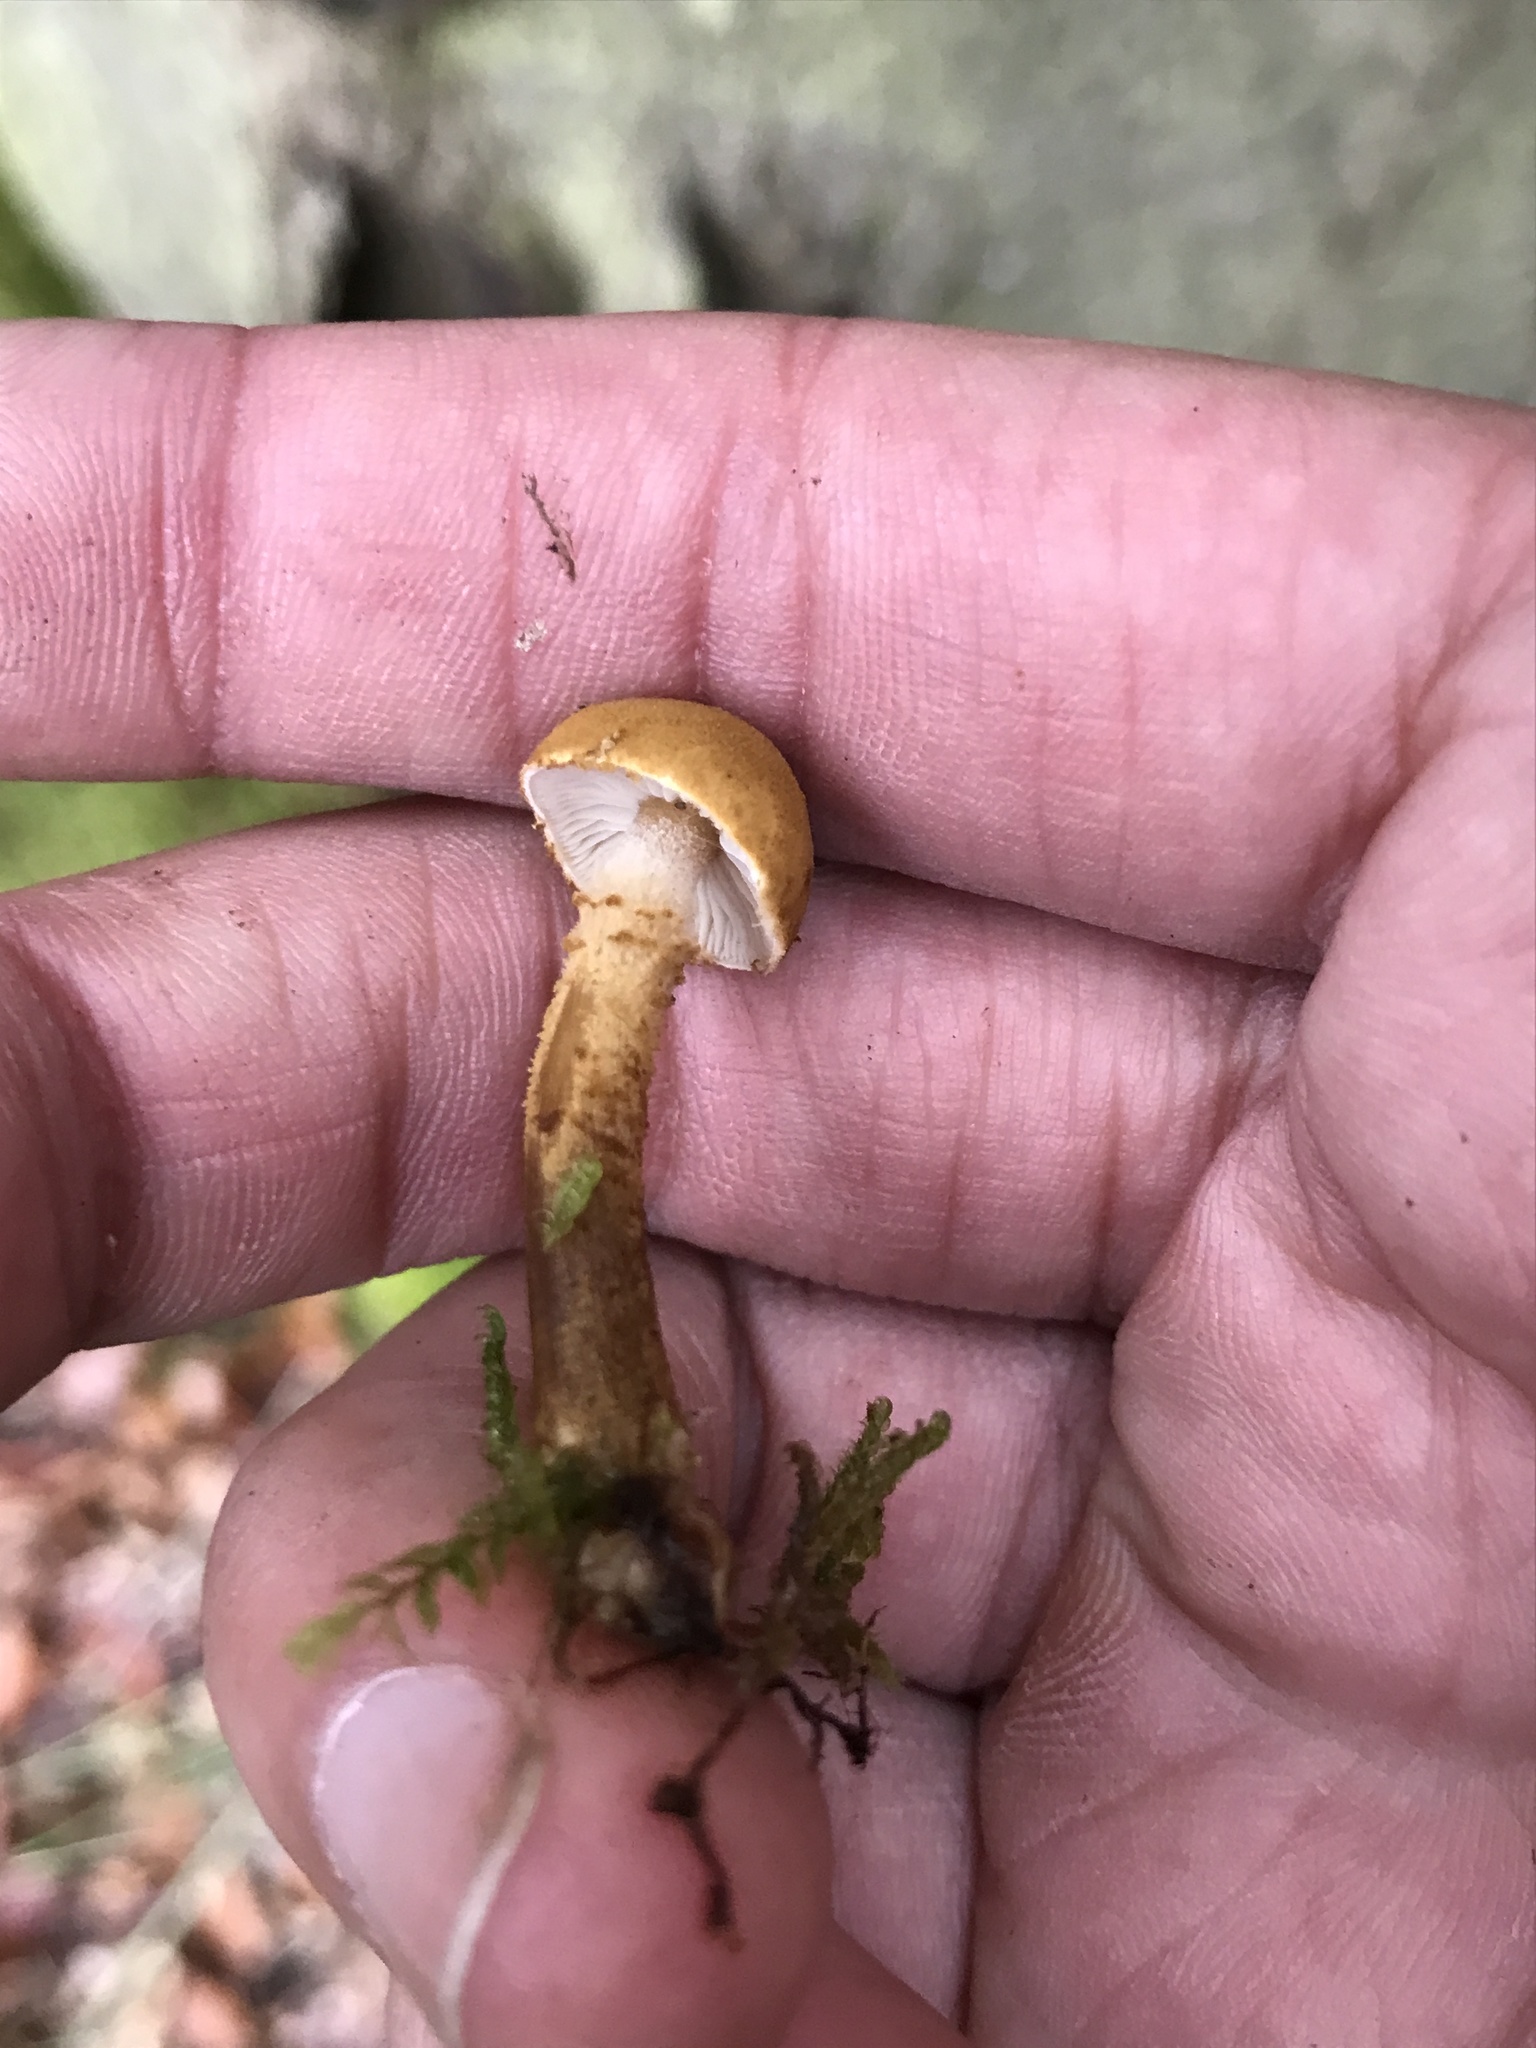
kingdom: Fungi
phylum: Basidiomycota
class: Agaricomycetes
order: Agaricales
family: Tricholomataceae
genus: Cystoderma
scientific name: Cystoderma amianthinum
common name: Earthy powdercap
